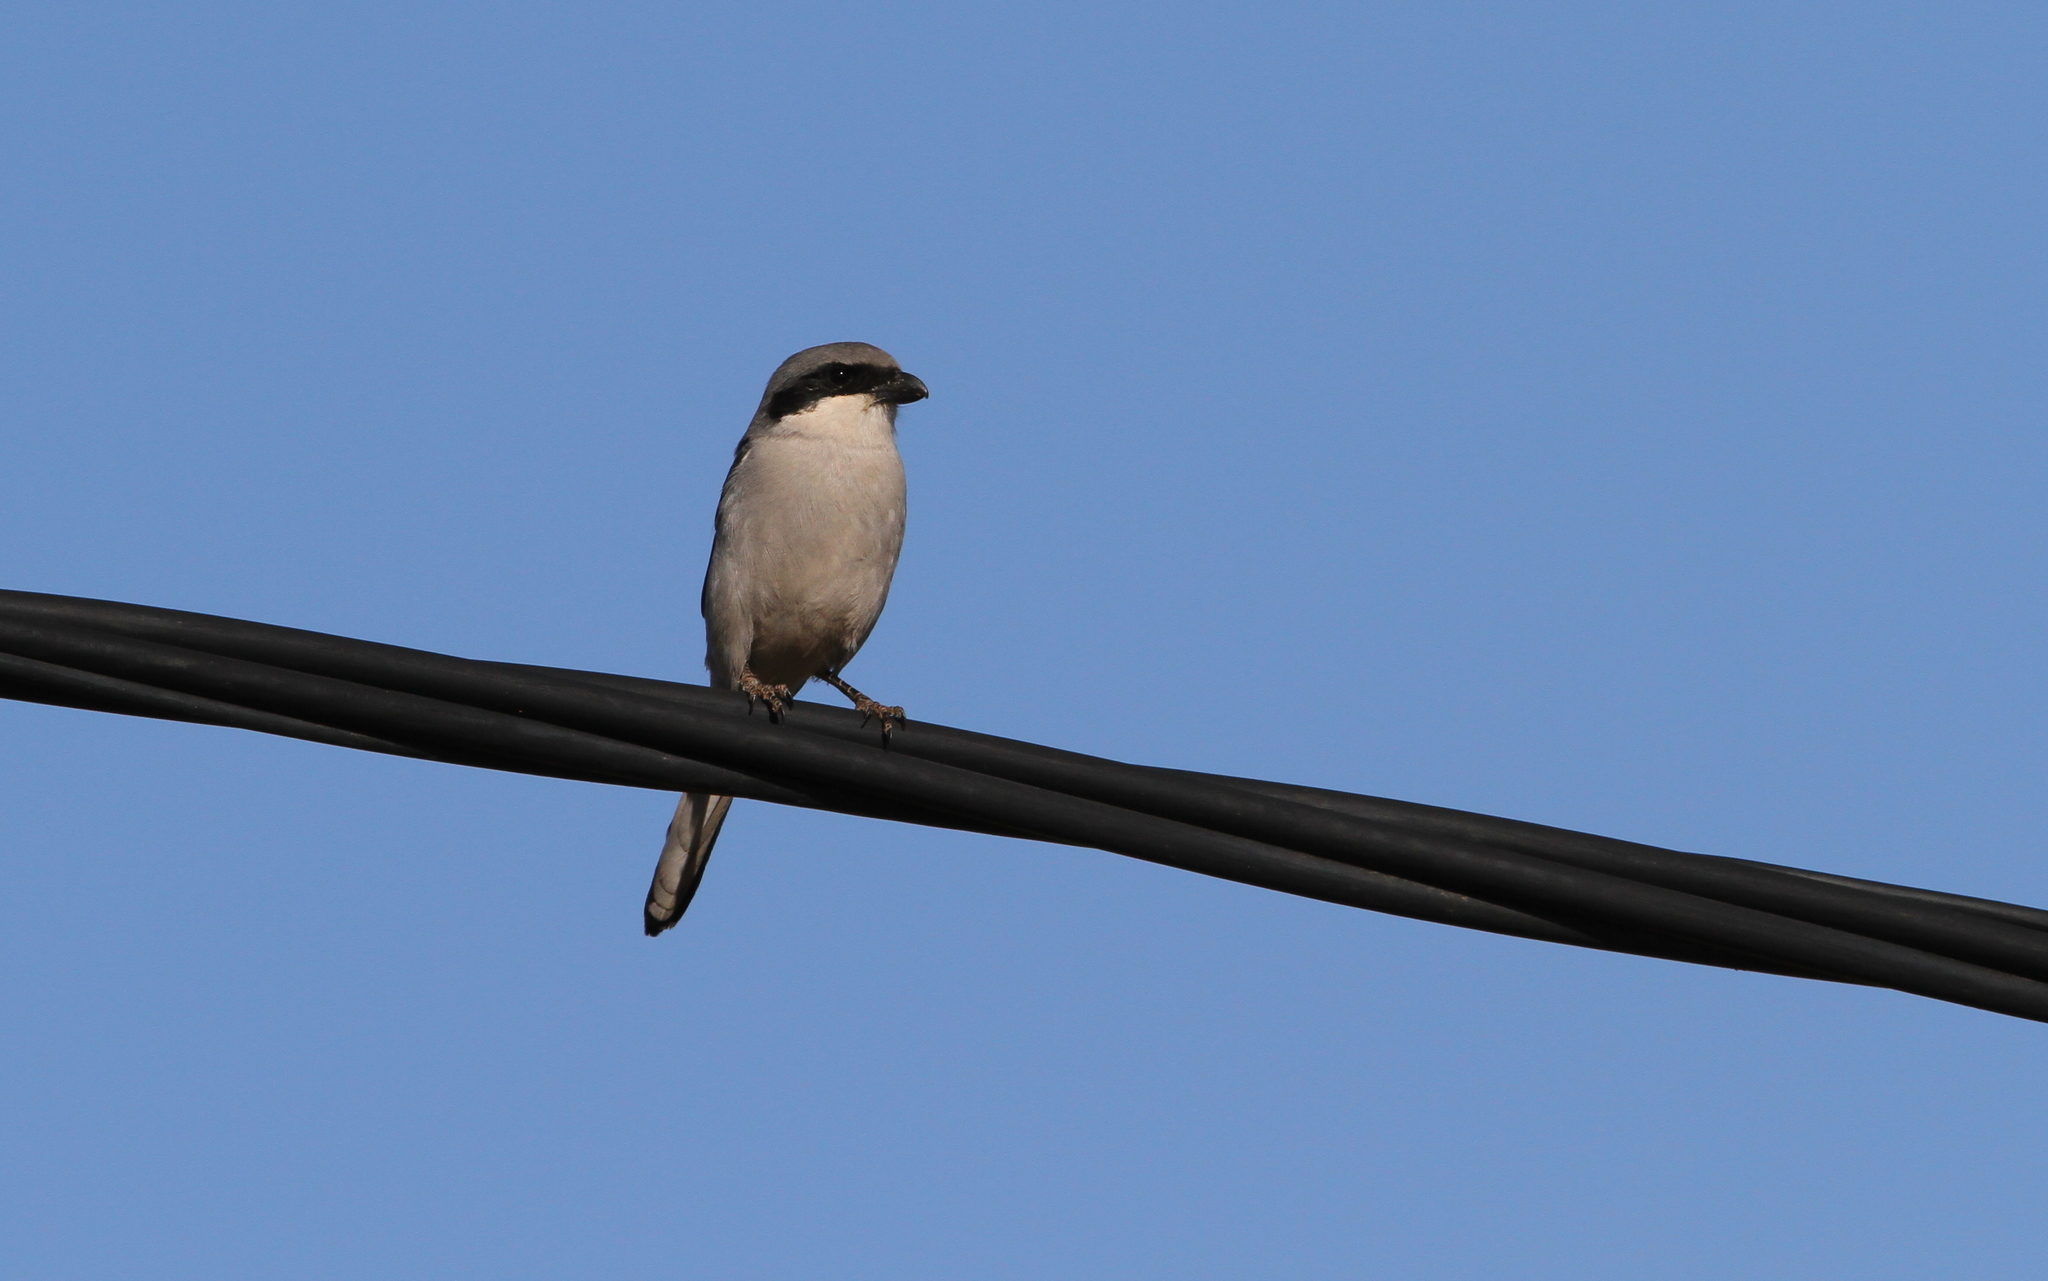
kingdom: Animalia
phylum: Chordata
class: Aves
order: Passeriformes
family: Laniidae
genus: Lanius
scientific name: Lanius excubitor
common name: Great grey shrike
